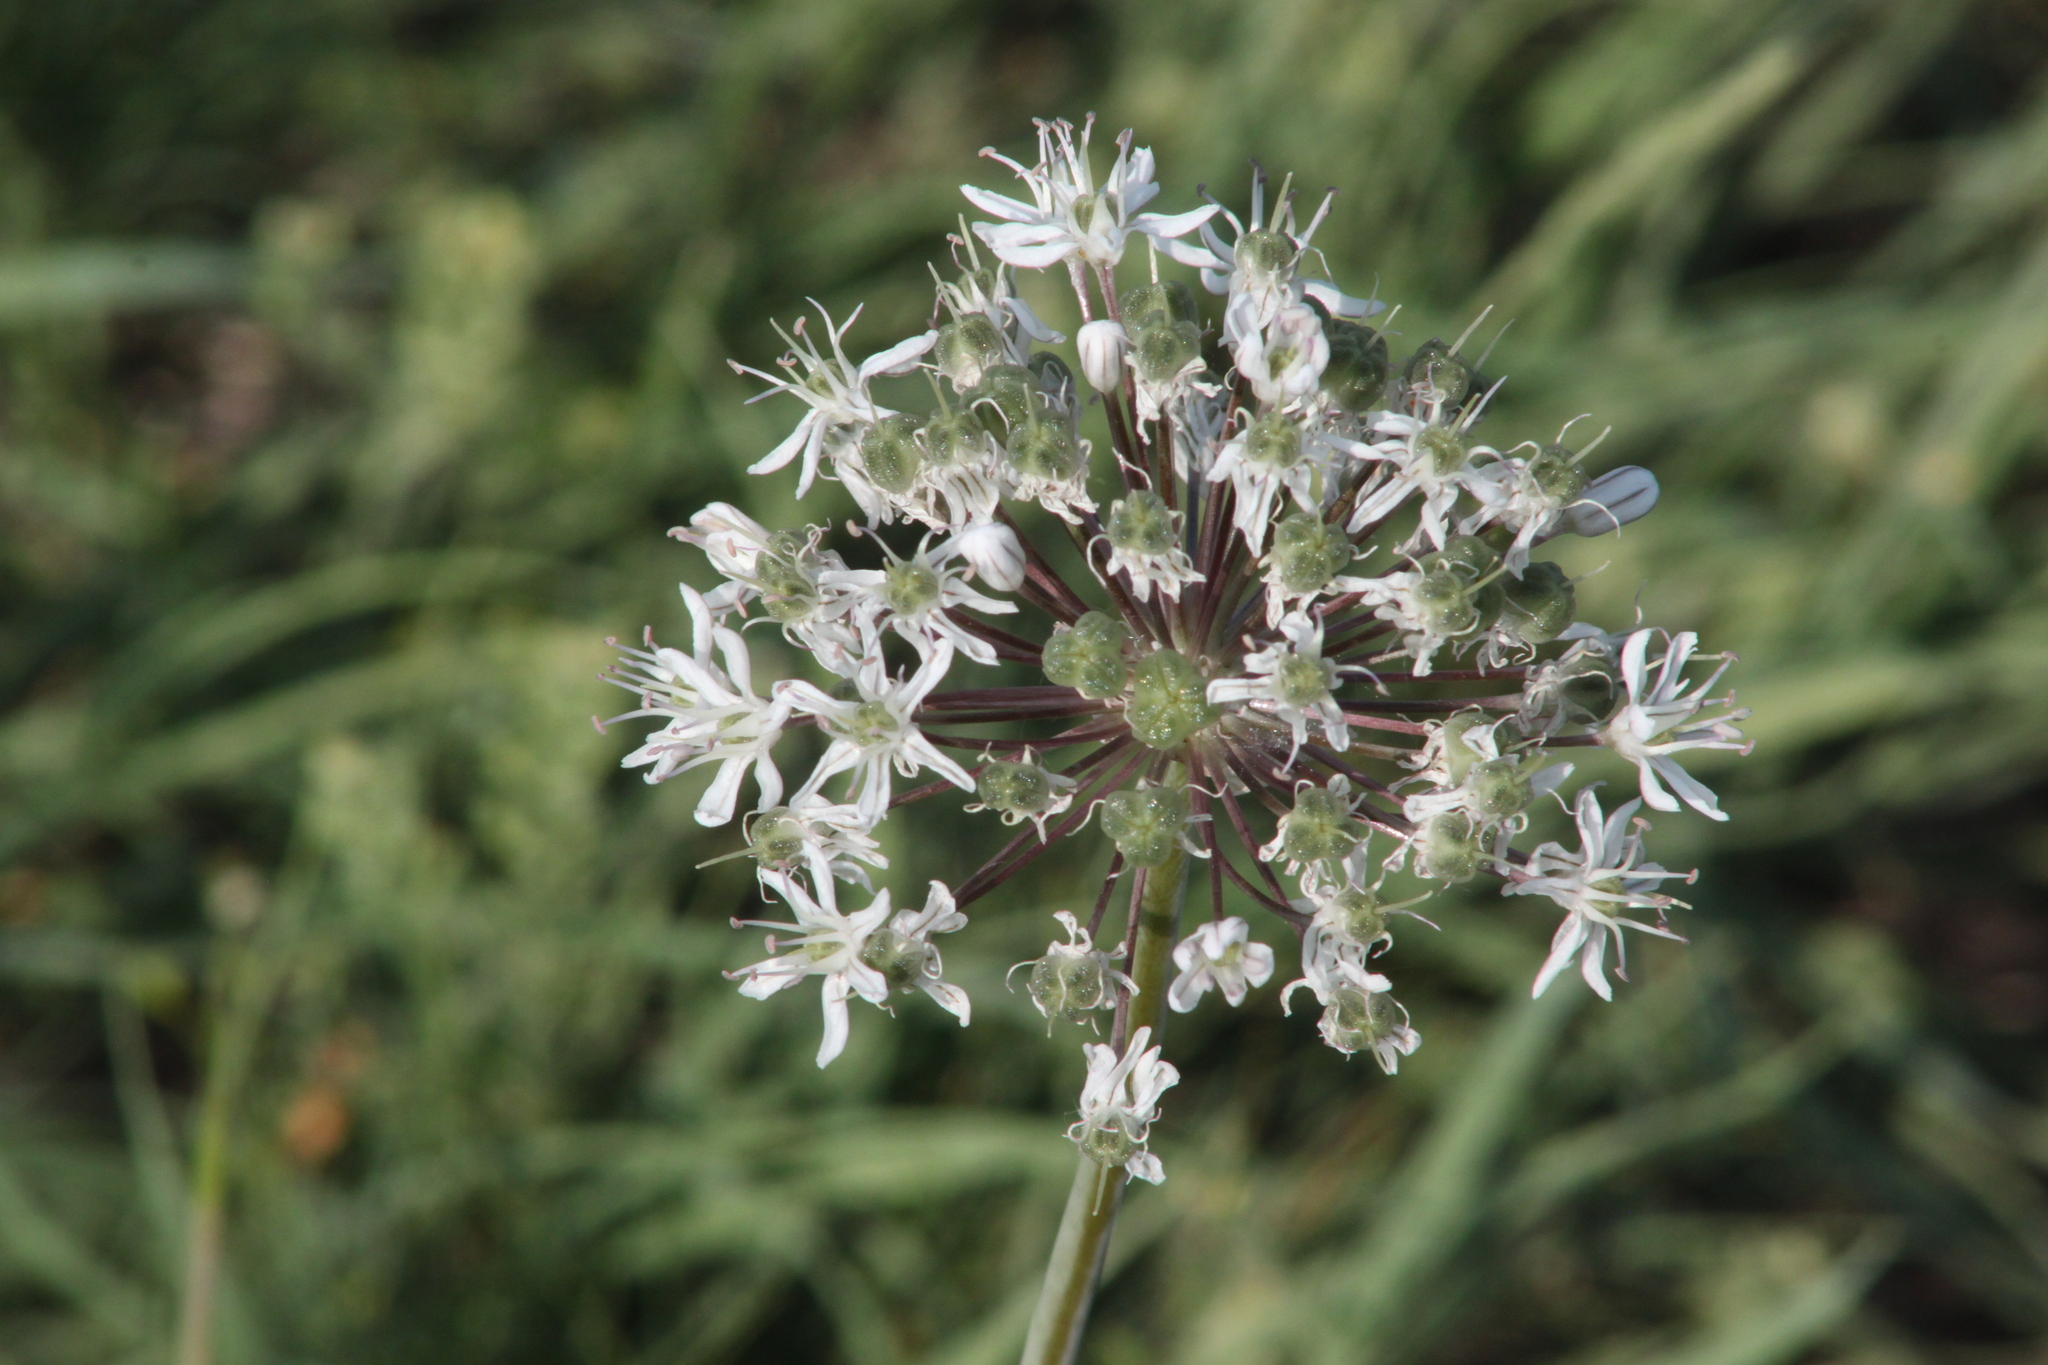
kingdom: Plantae
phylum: Tracheophyta
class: Liliopsida
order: Asparagales
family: Amaryllidaceae
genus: Allium
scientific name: Allium tulipifolium
